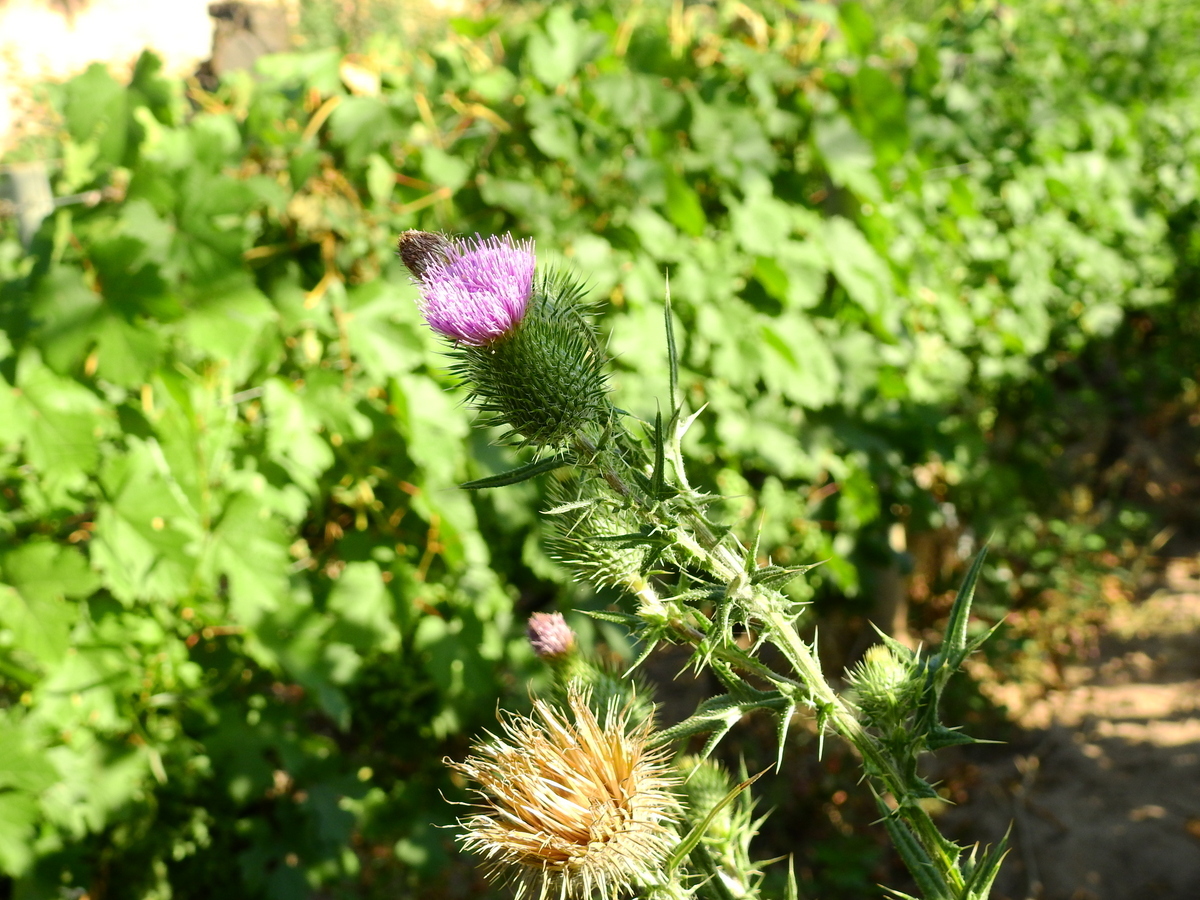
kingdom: Plantae
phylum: Tracheophyta
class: Magnoliopsida
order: Asterales
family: Asteraceae
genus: Cirsium
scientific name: Cirsium vulgare
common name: Bull thistle
